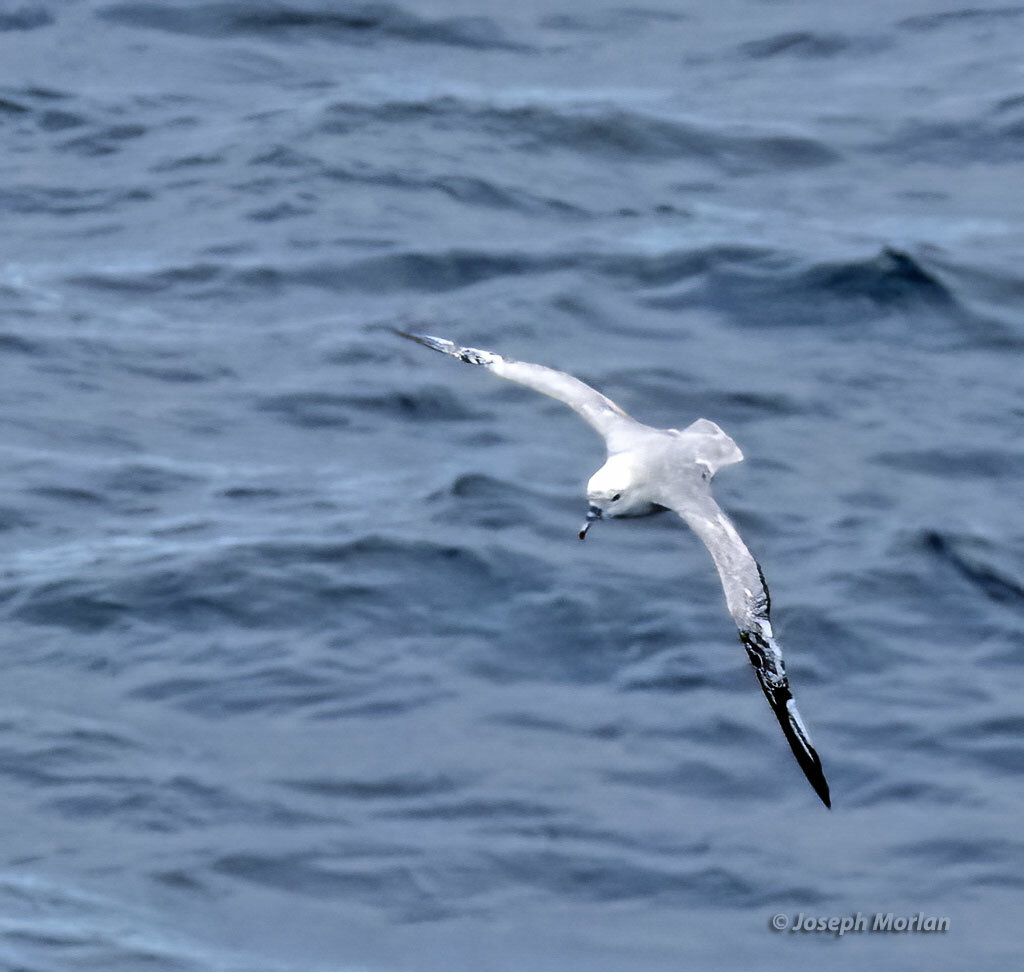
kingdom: Animalia
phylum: Chordata
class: Aves
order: Procellariiformes
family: Procellariidae
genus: Fulmarus
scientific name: Fulmarus glacialoides
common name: Southern fulmar
